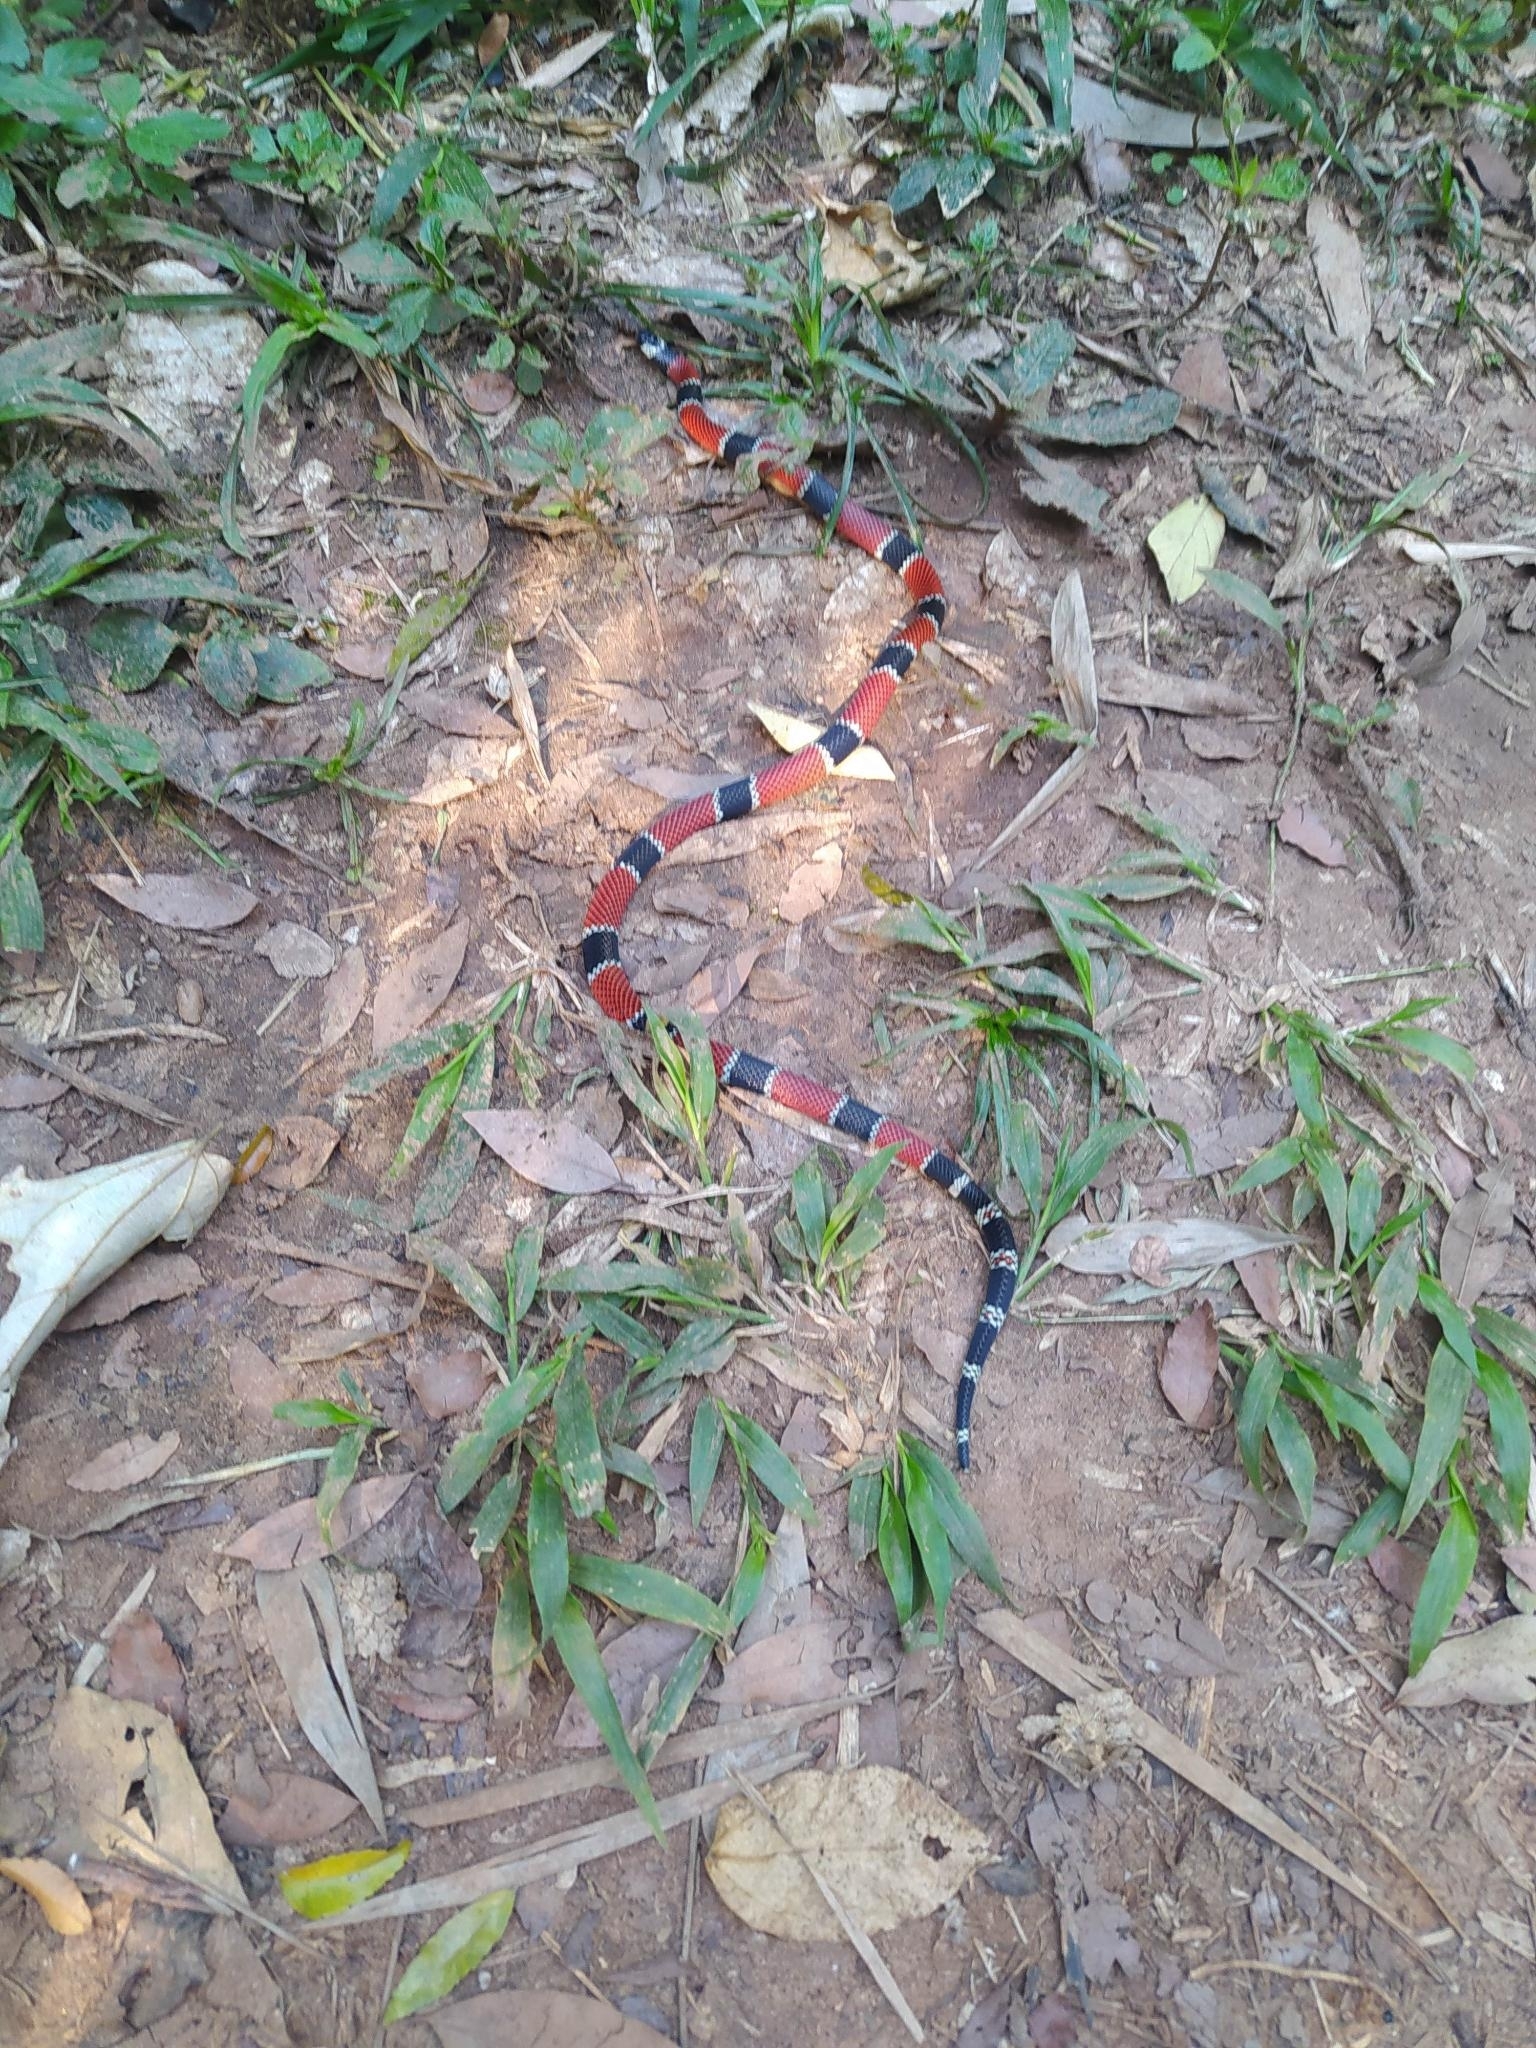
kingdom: Animalia
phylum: Chordata
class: Squamata
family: Elapidae
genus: Micrurus
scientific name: Micrurus corallinus
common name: Painted coral snake
